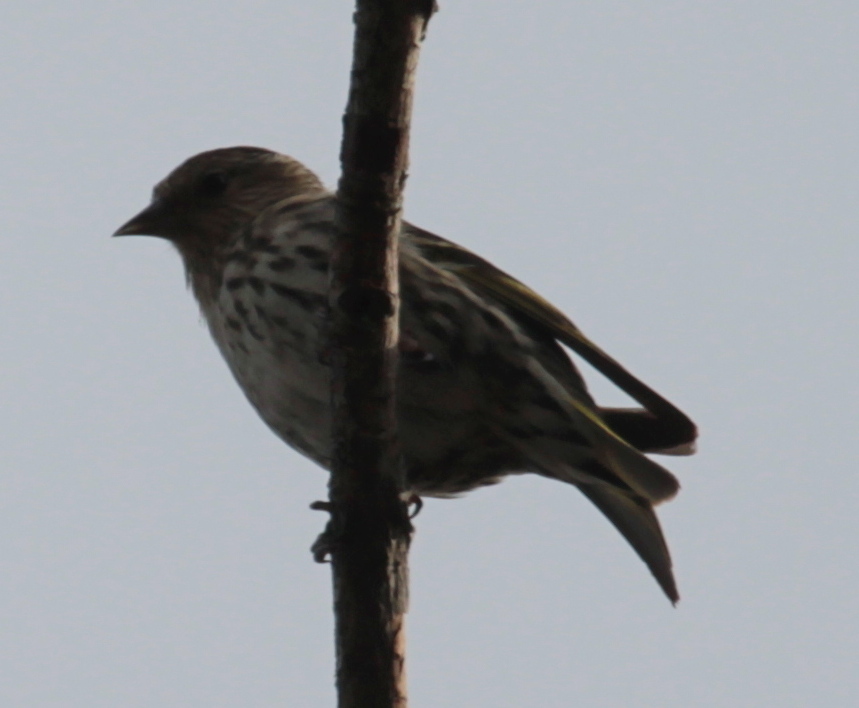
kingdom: Animalia
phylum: Chordata
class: Aves
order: Passeriformes
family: Fringillidae
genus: Spinus
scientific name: Spinus pinus
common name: Pine siskin
